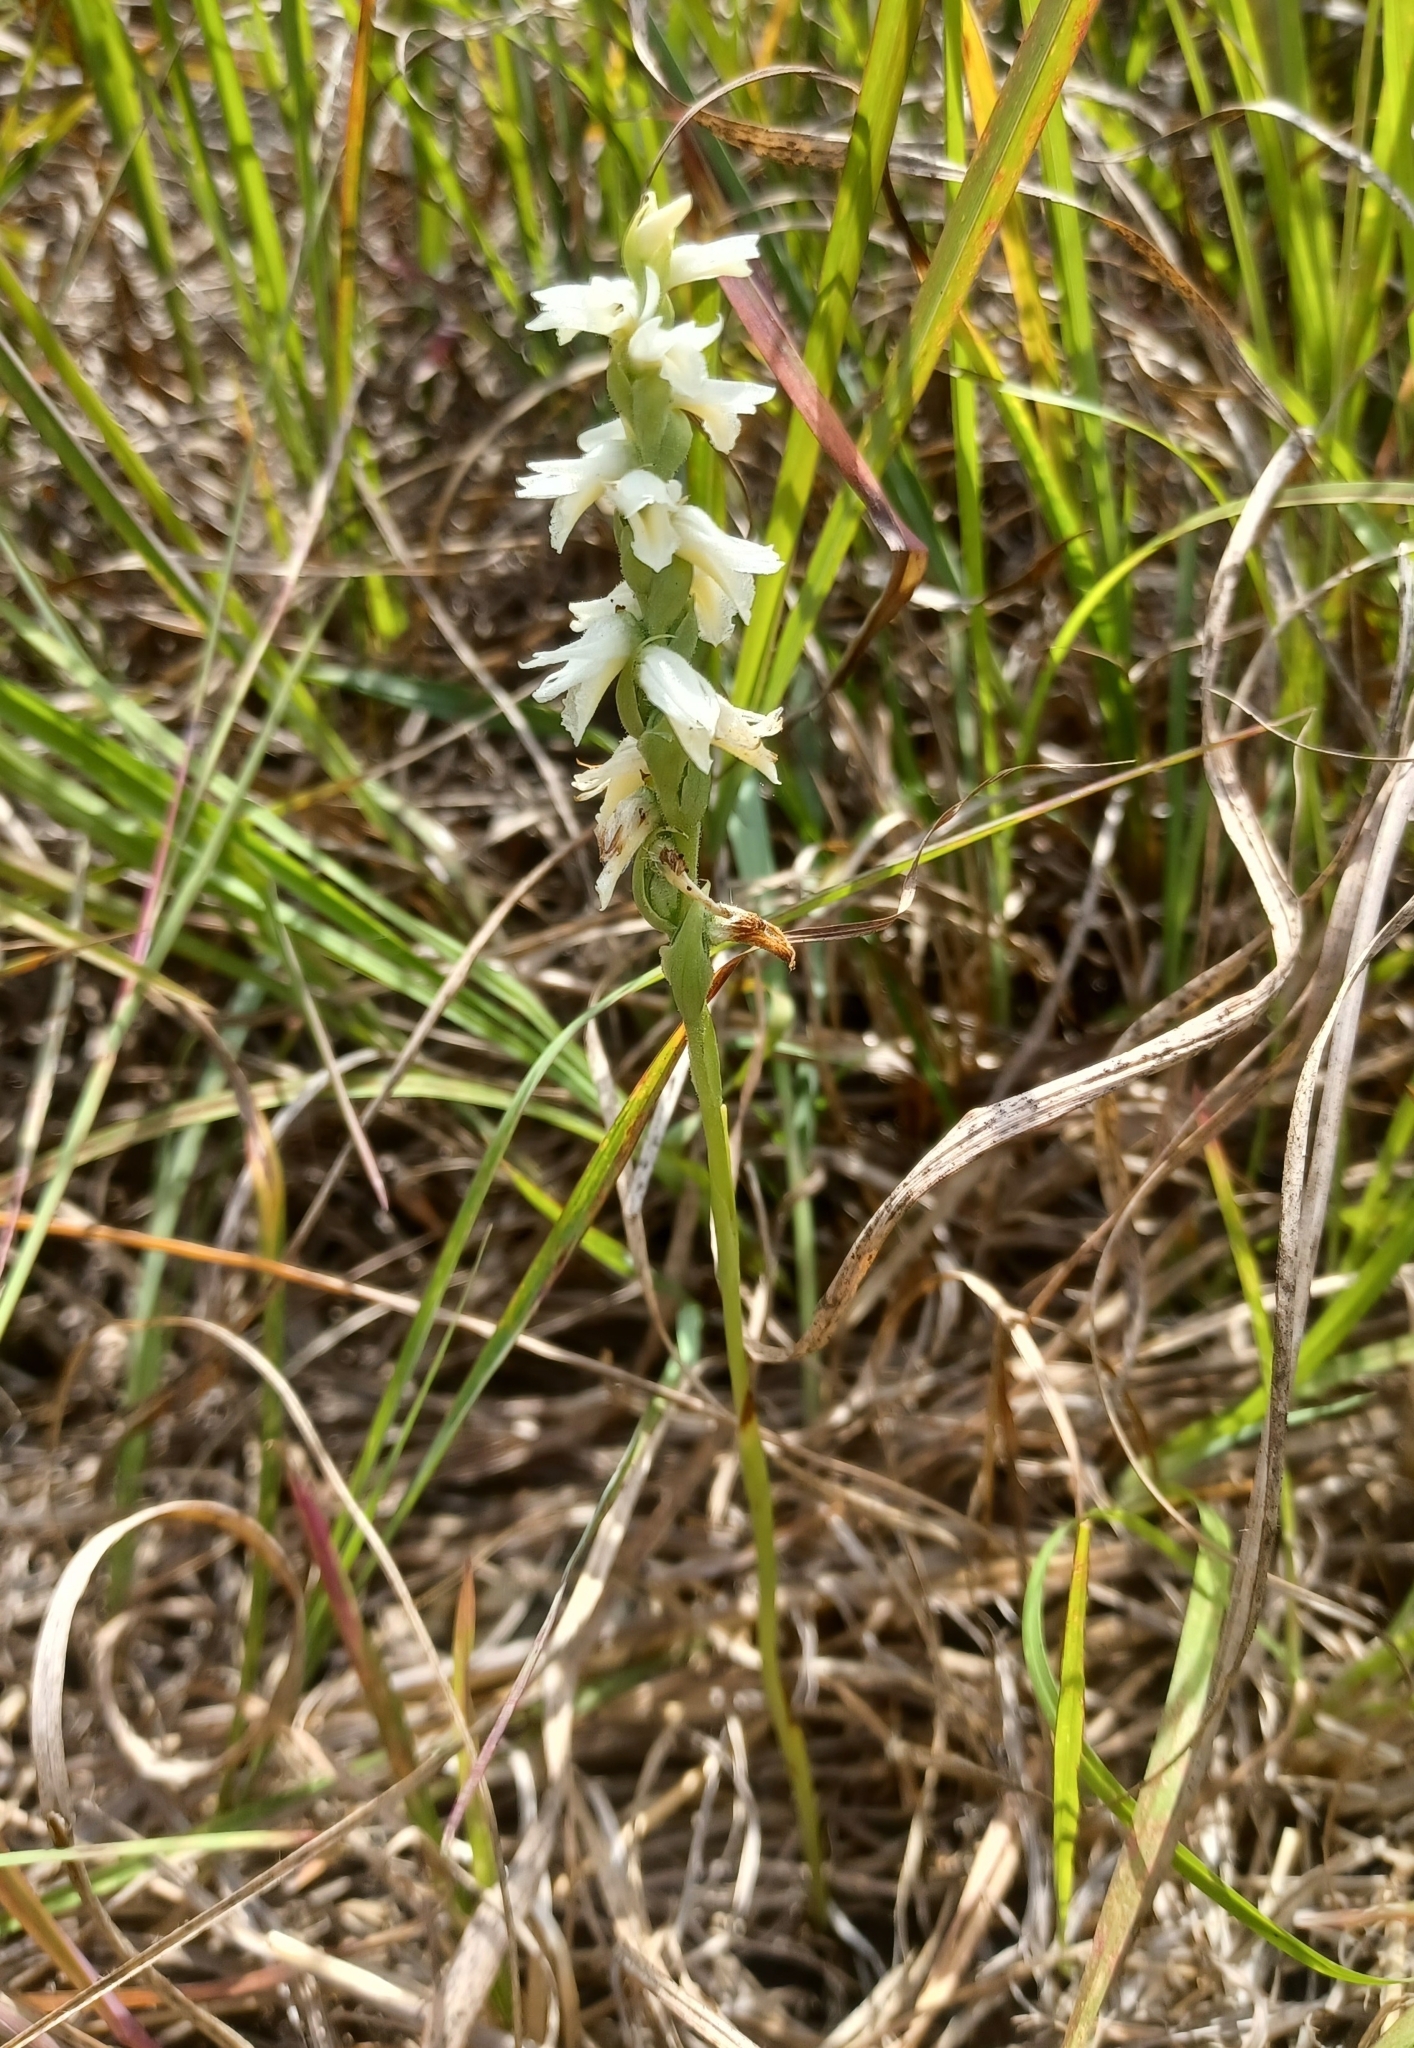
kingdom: Plantae
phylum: Tracheophyta
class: Liliopsida
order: Asparagales
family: Orchidaceae
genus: Spiranthes
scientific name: Spiranthes magnicamporum
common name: Great plains ladies'-tresses
